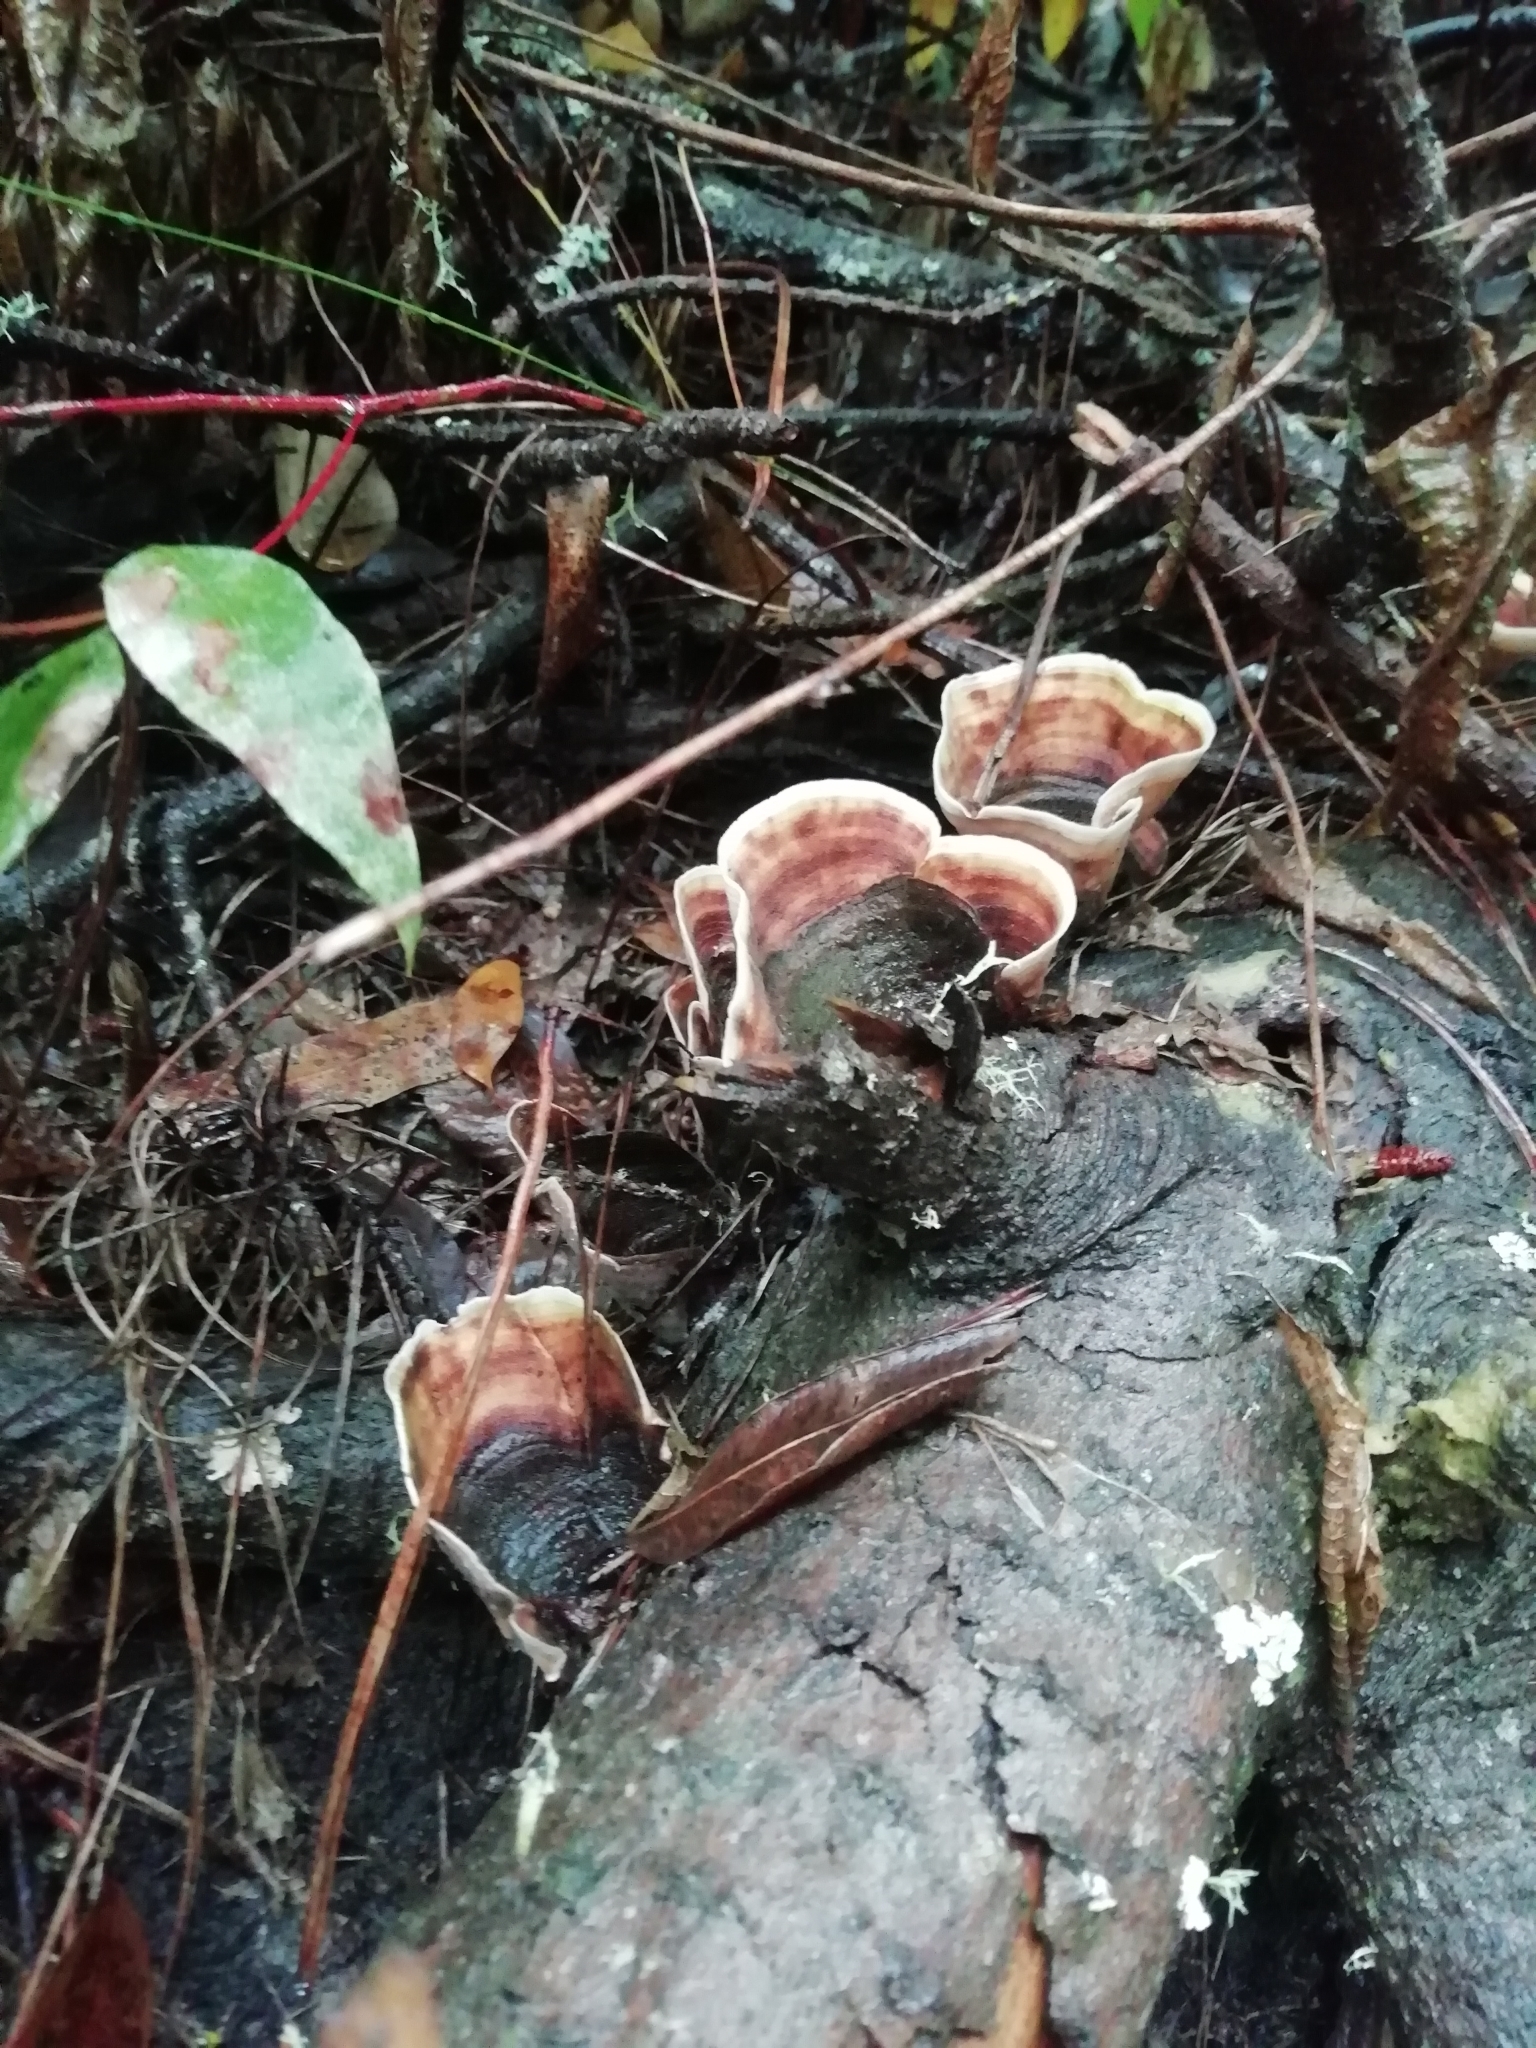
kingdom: Fungi
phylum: Basidiomycota
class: Agaricomycetes
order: Russulales
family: Stereaceae
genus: Stereum
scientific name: Stereum versicolor
